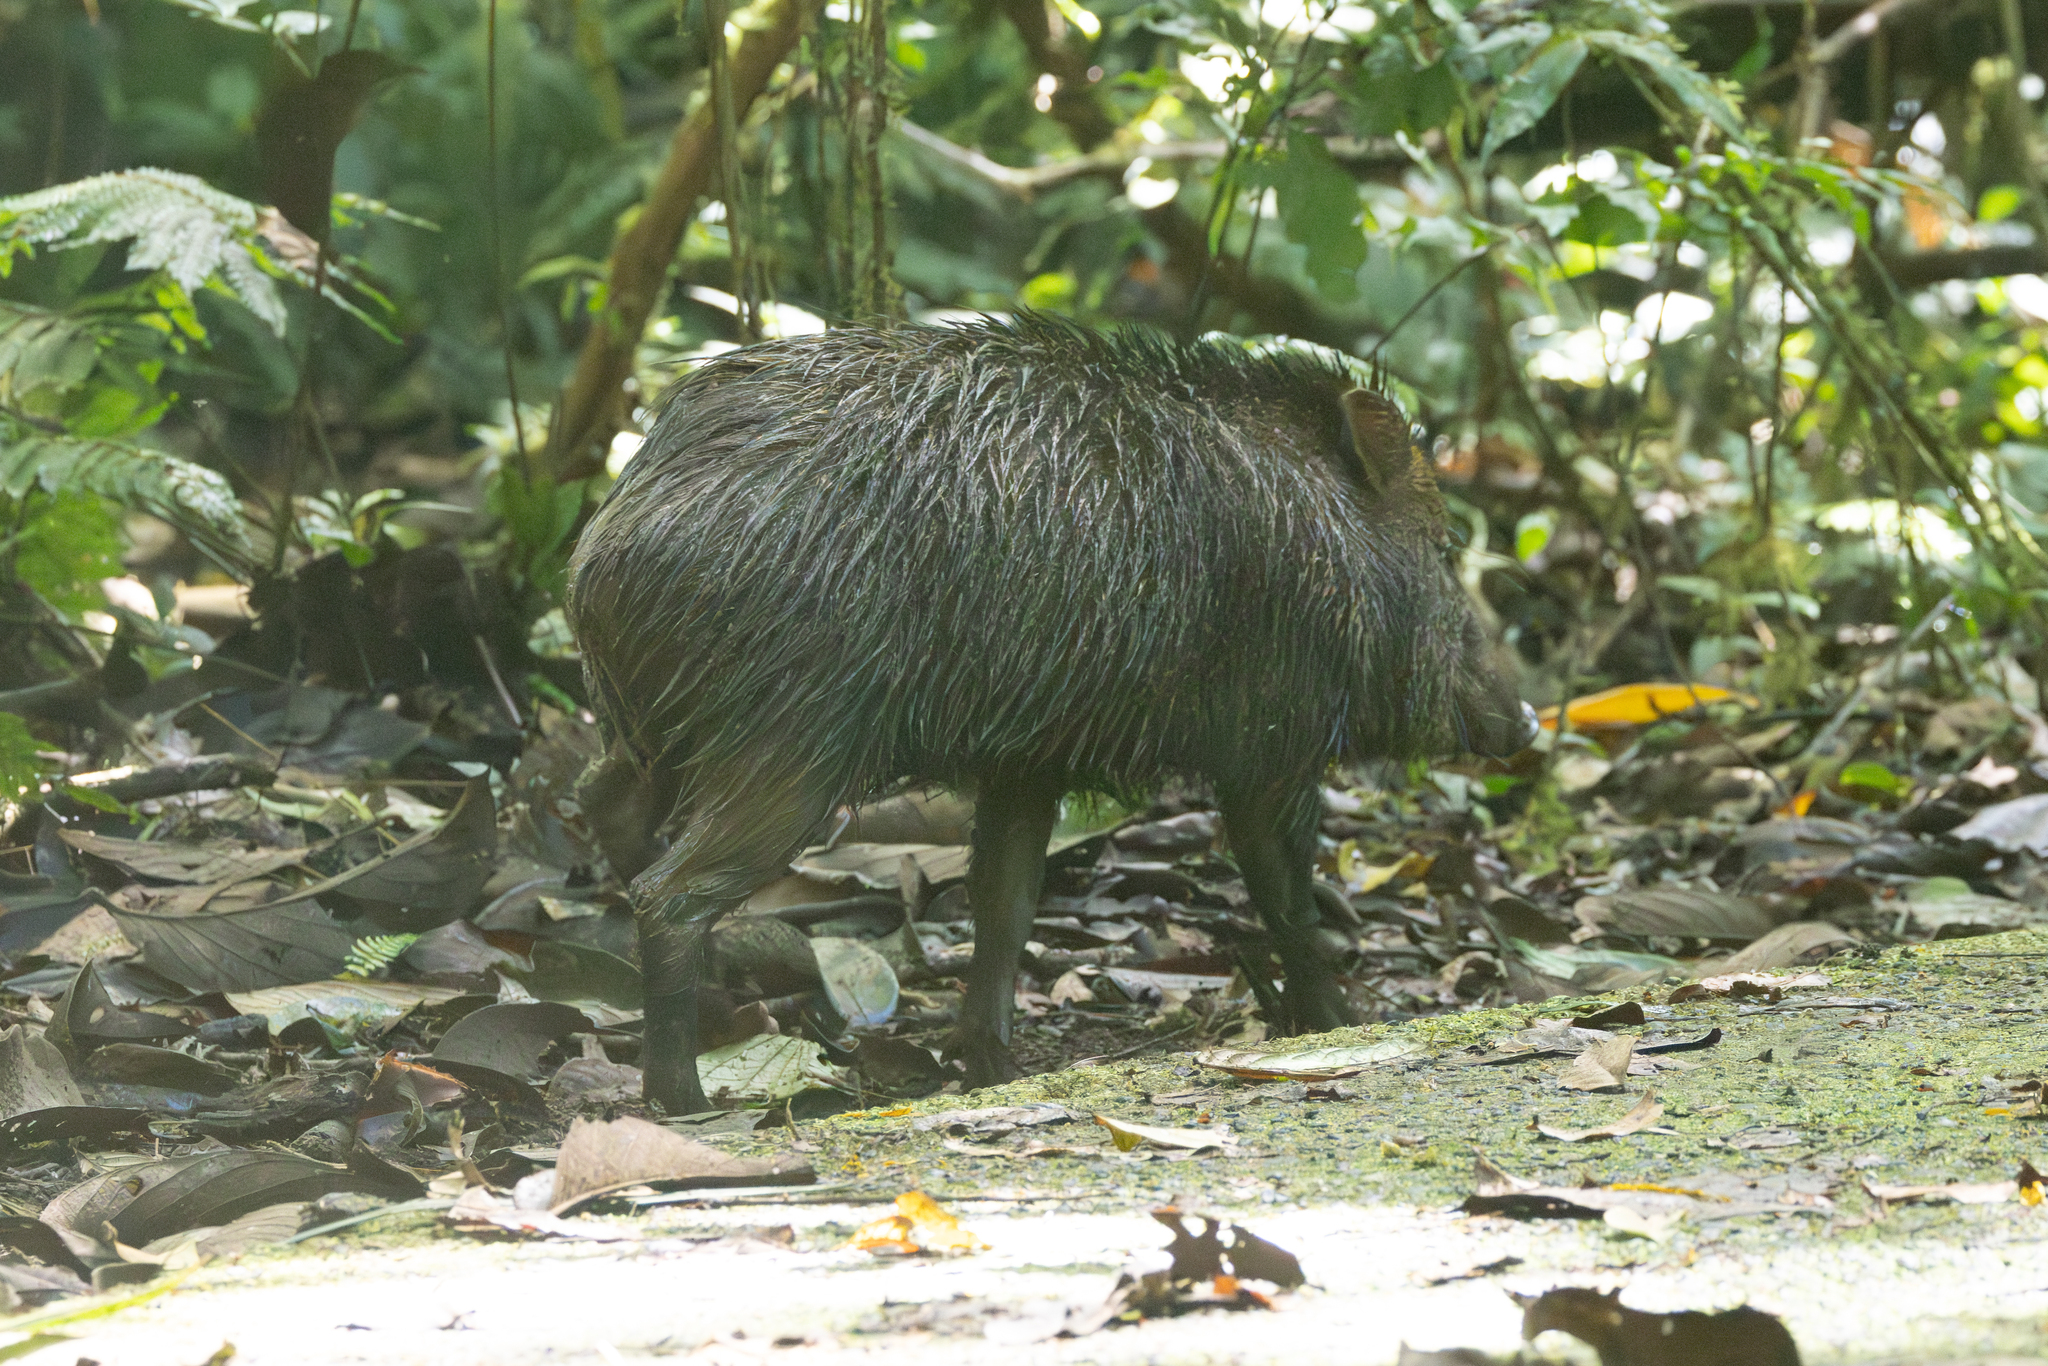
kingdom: Animalia
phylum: Chordata
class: Mammalia
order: Artiodactyla
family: Tayassuidae
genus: Pecari
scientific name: Pecari tajacu
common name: Collared peccary
